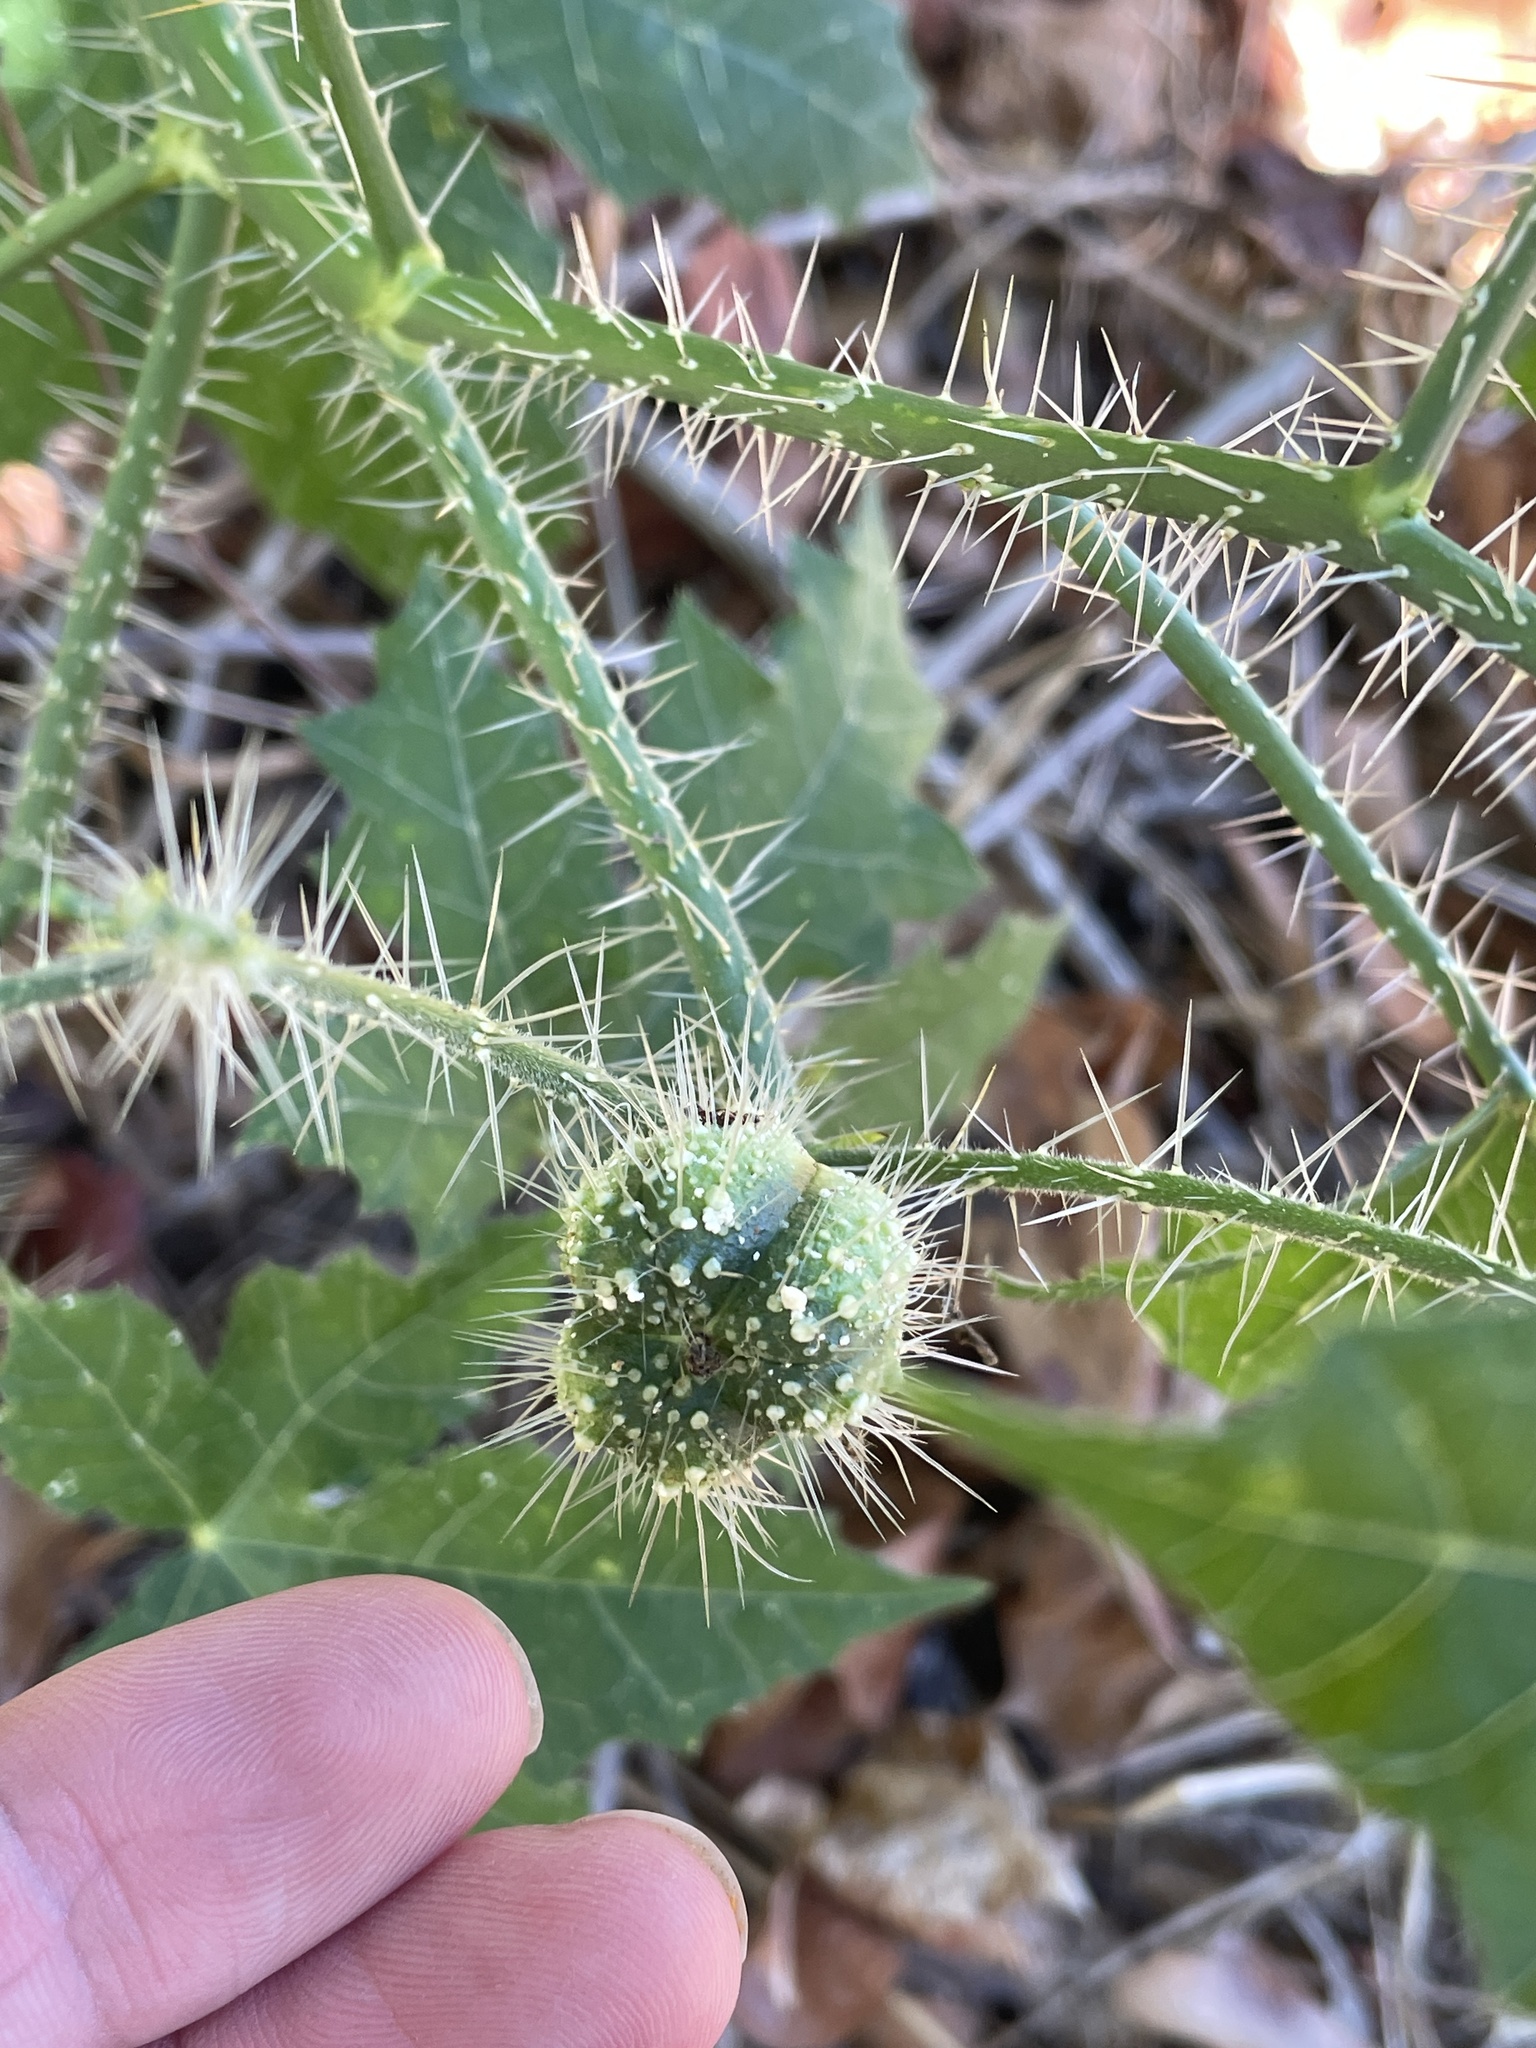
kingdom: Plantae
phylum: Tracheophyta
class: Magnoliopsida
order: Malpighiales
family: Euphorbiaceae
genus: Cnidoscolus
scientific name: Cnidoscolus texanus
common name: Texas bull-nettle
